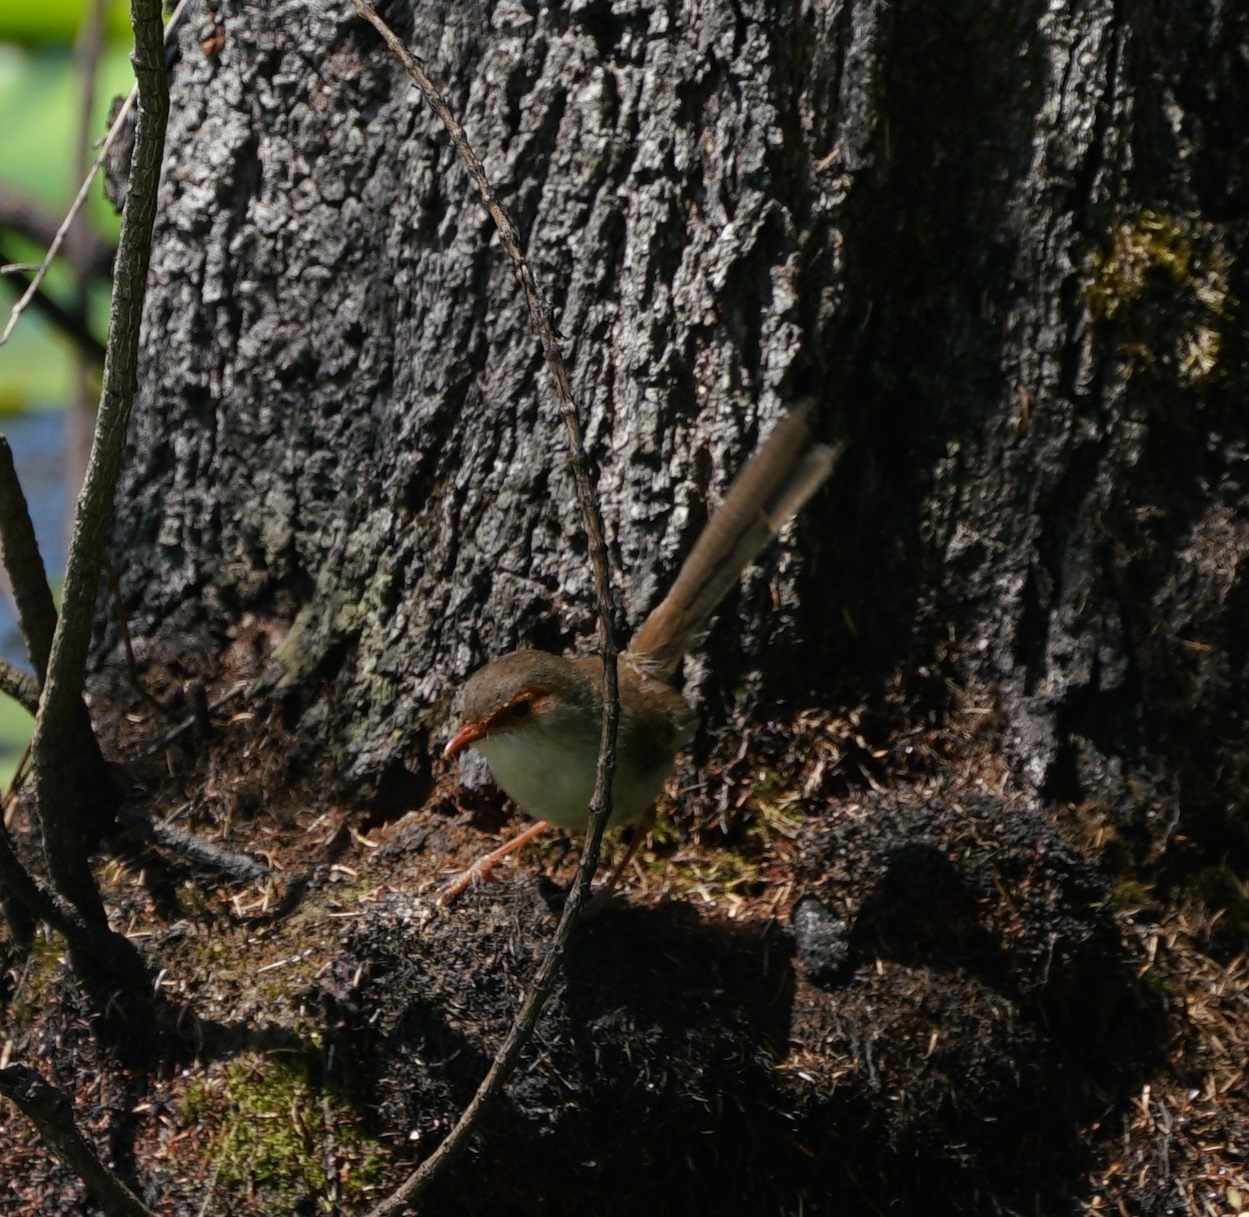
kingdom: Animalia
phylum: Chordata
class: Aves
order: Passeriformes
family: Maluridae
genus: Malurus
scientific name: Malurus cyaneus
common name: Superb fairywren
